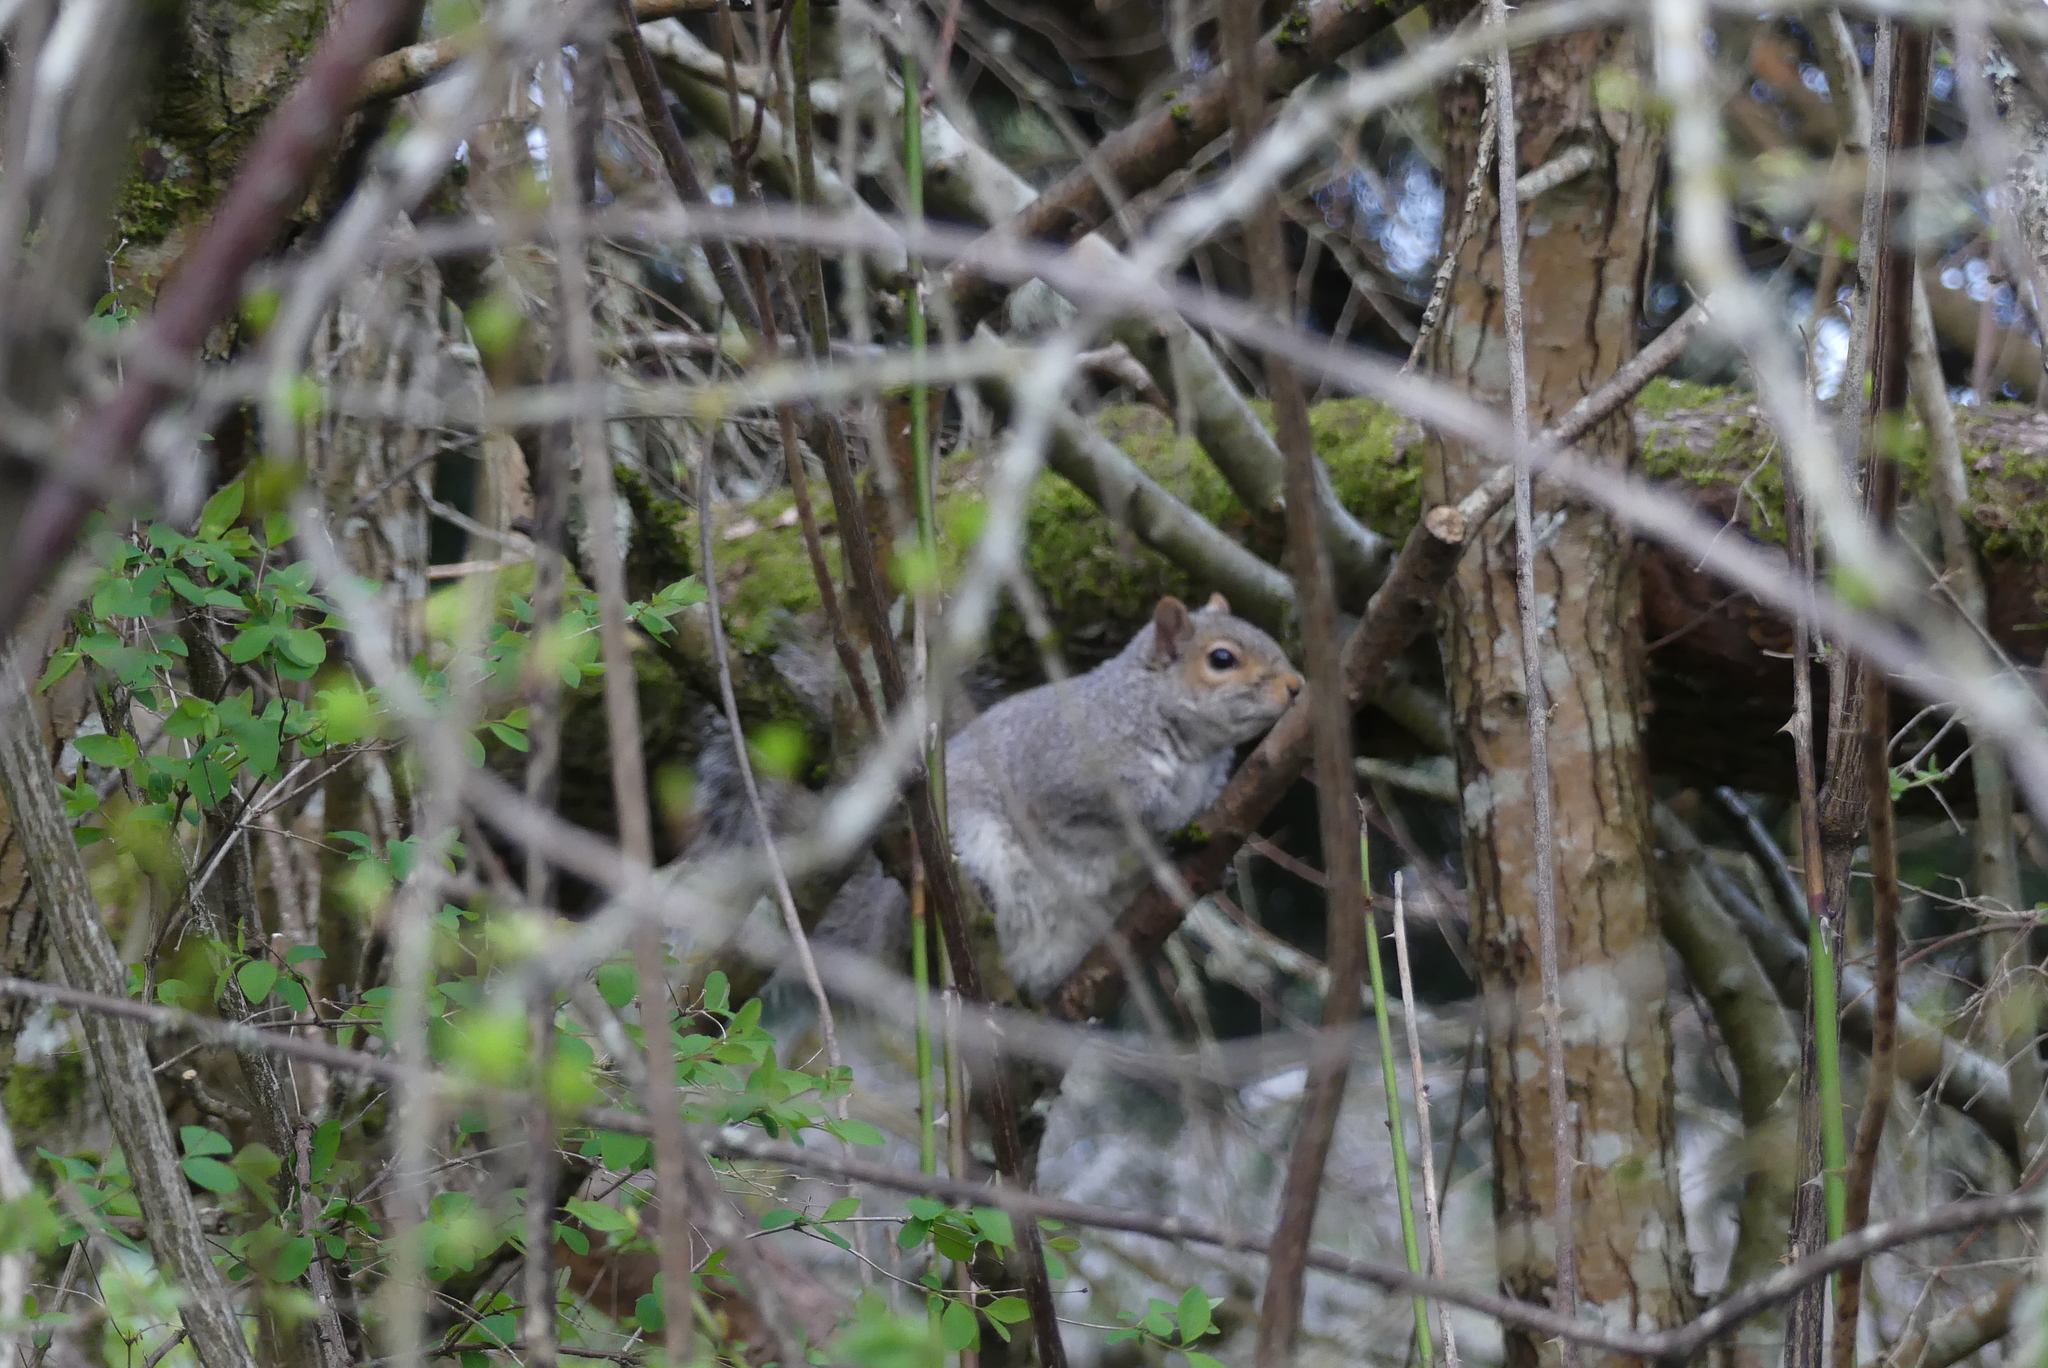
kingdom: Animalia
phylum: Chordata
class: Mammalia
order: Rodentia
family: Sciuridae
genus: Sciurus
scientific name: Sciurus carolinensis
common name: Eastern gray squirrel
